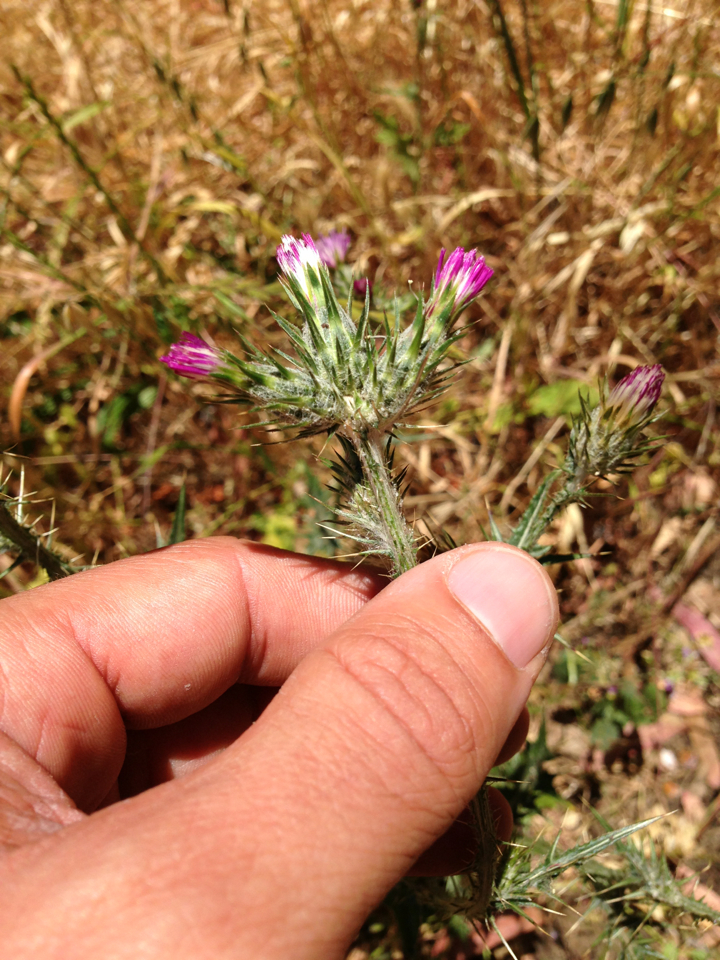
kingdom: Plantae
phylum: Tracheophyta
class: Magnoliopsida
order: Asterales
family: Asteraceae
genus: Carduus
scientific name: Carduus pycnocephalus
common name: Plymouth thistle
